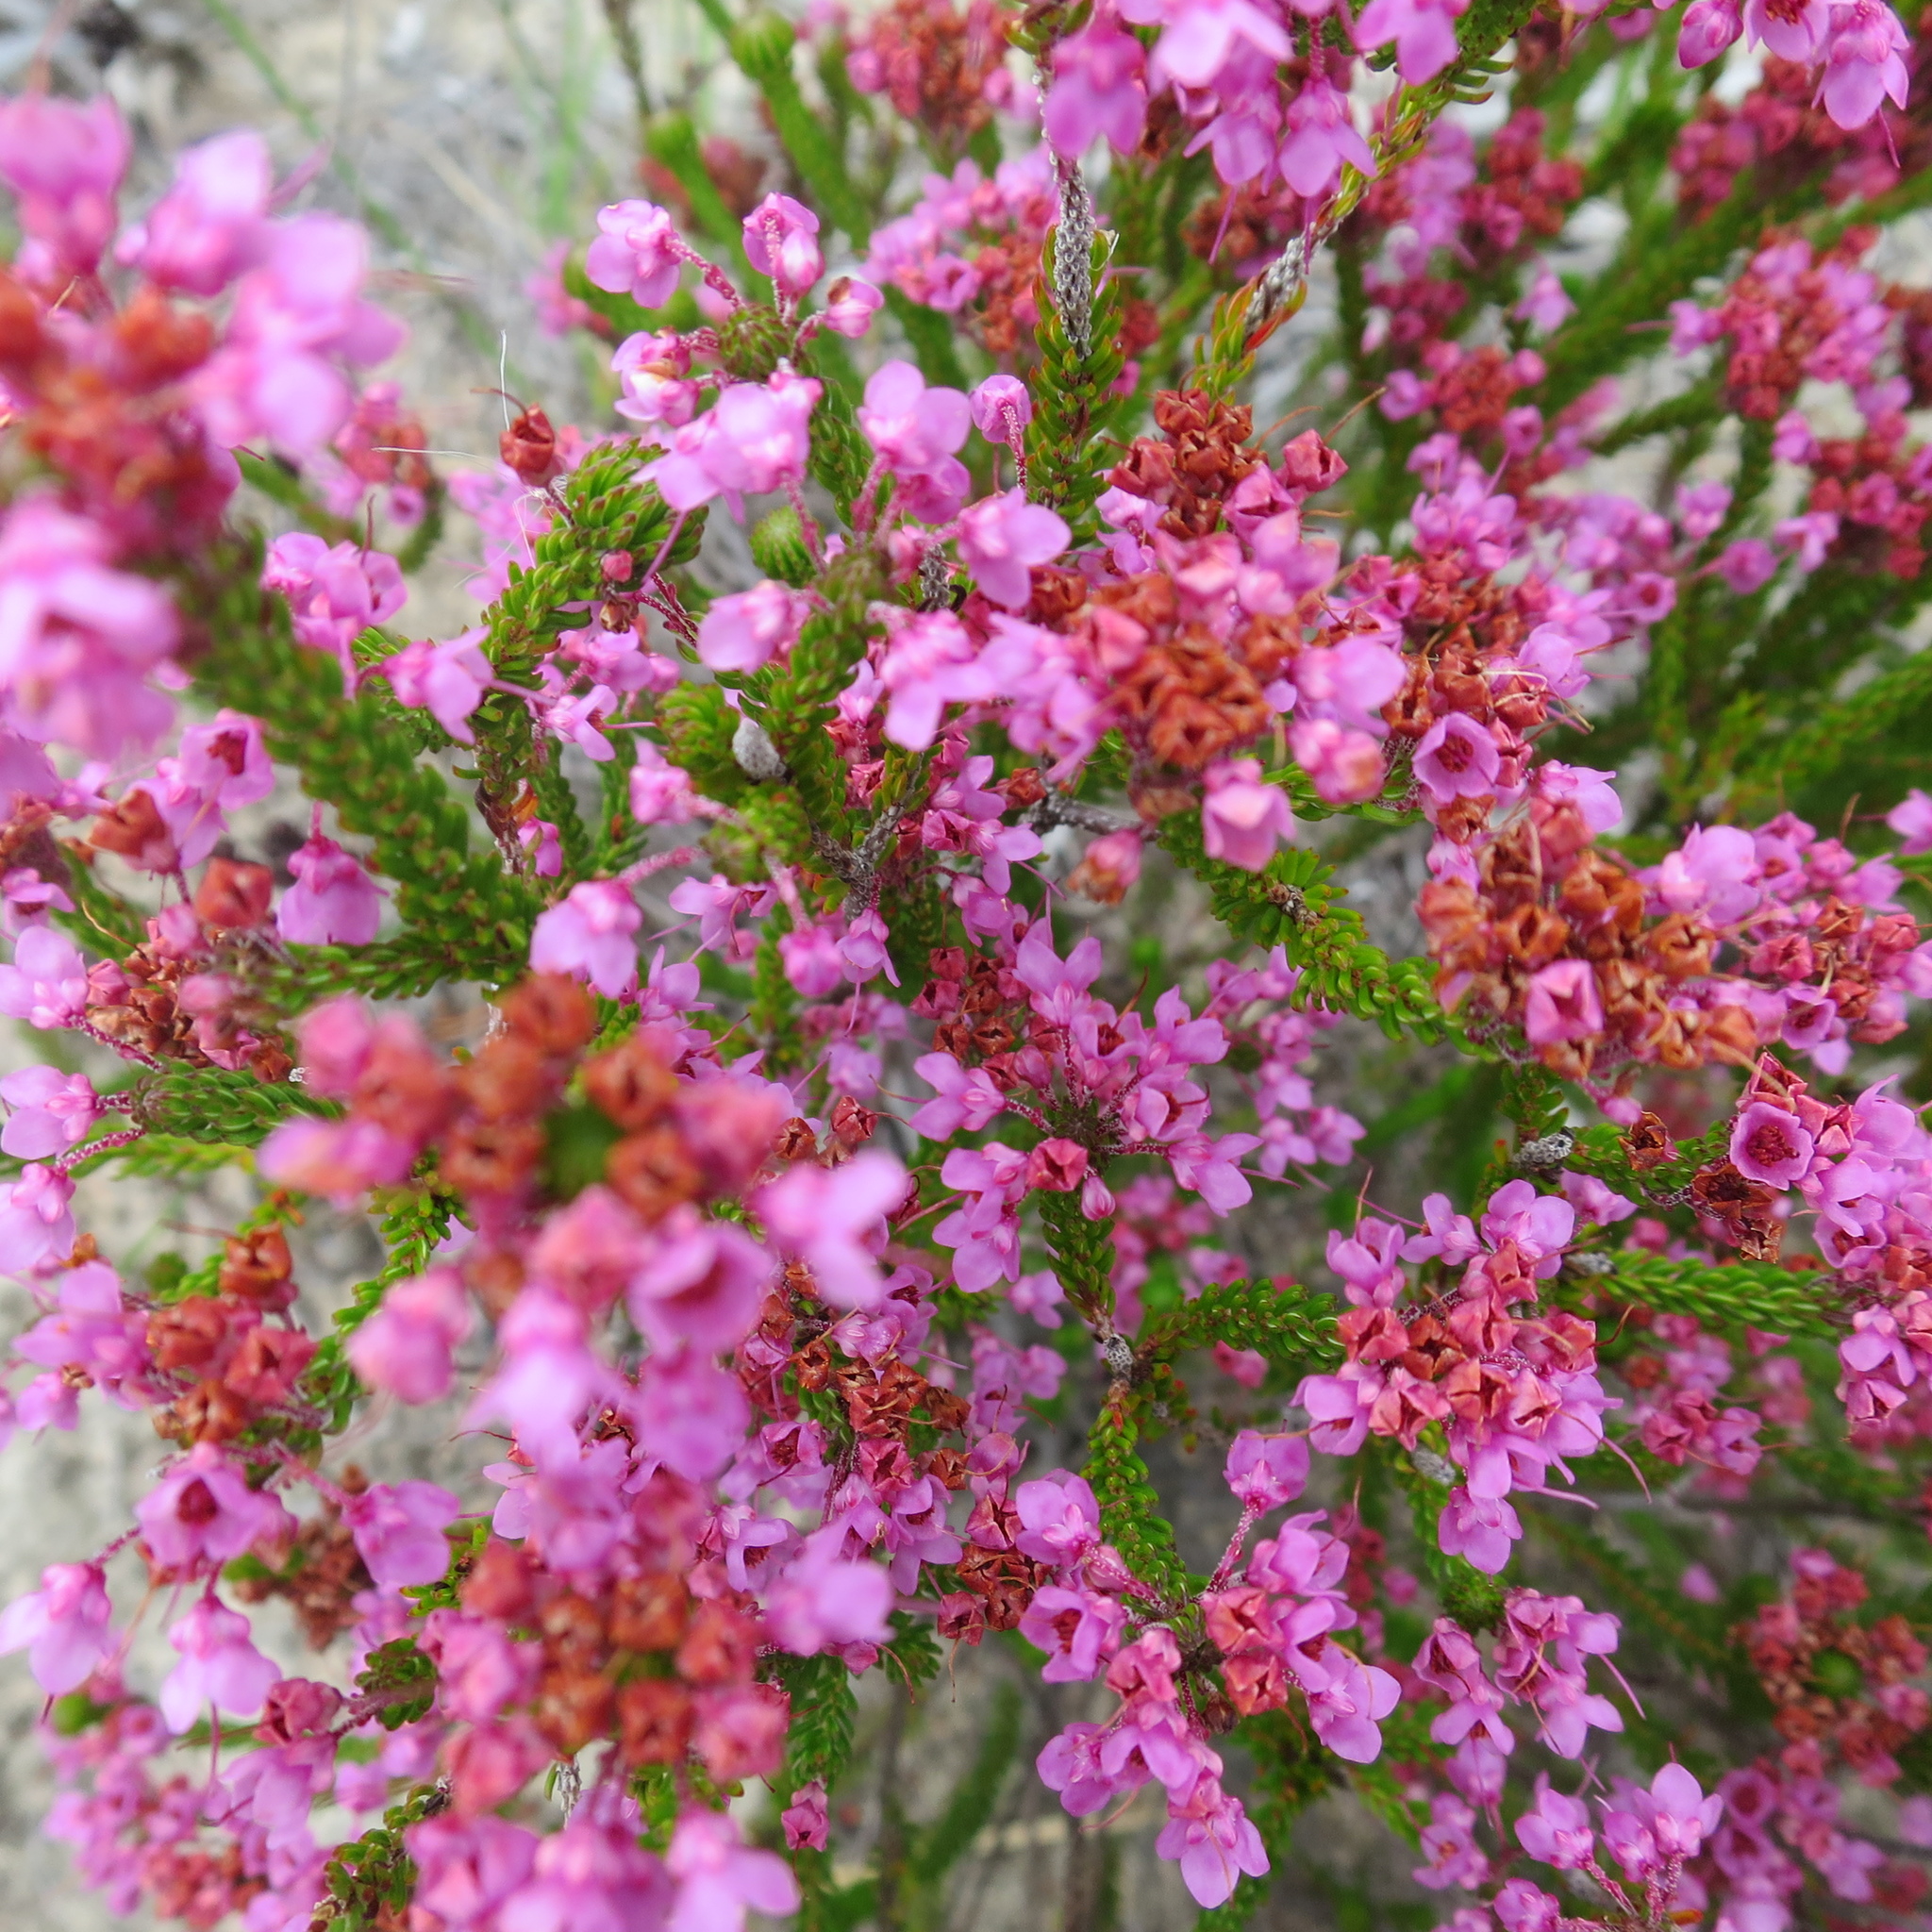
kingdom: Plantae
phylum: Tracheophyta
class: Magnoliopsida
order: Ericales
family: Ericaceae
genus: Erica
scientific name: Erica seriphiifolia
